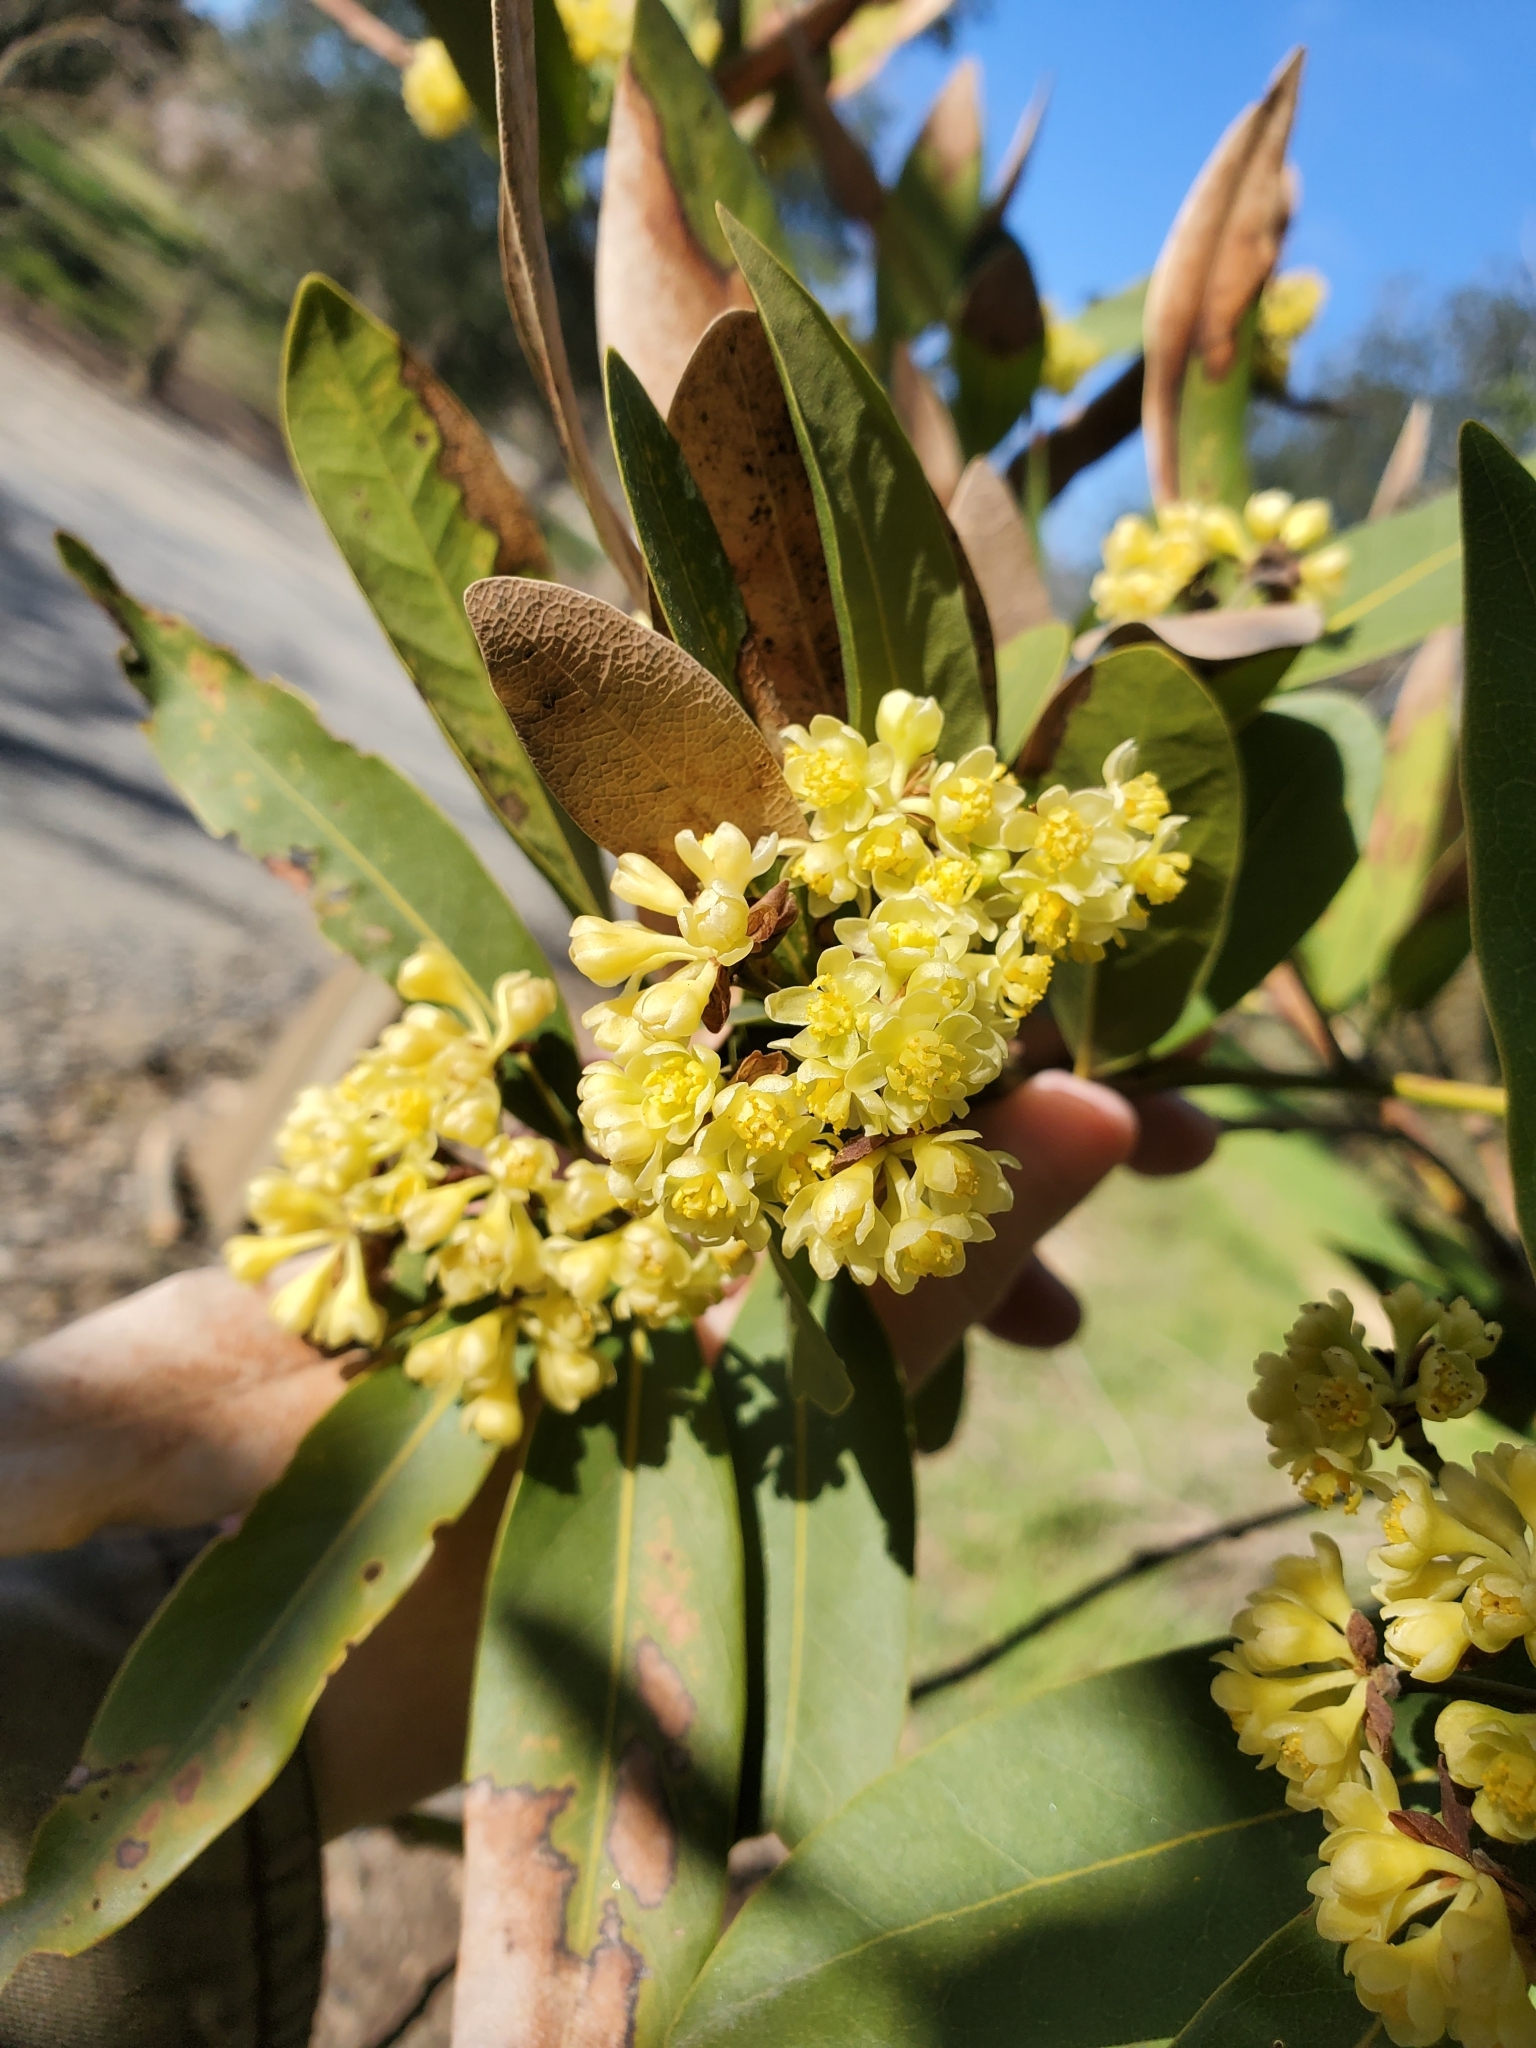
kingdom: Plantae
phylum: Tracheophyta
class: Magnoliopsida
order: Laurales
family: Lauraceae
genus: Umbellularia
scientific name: Umbellularia californica
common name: California bay
